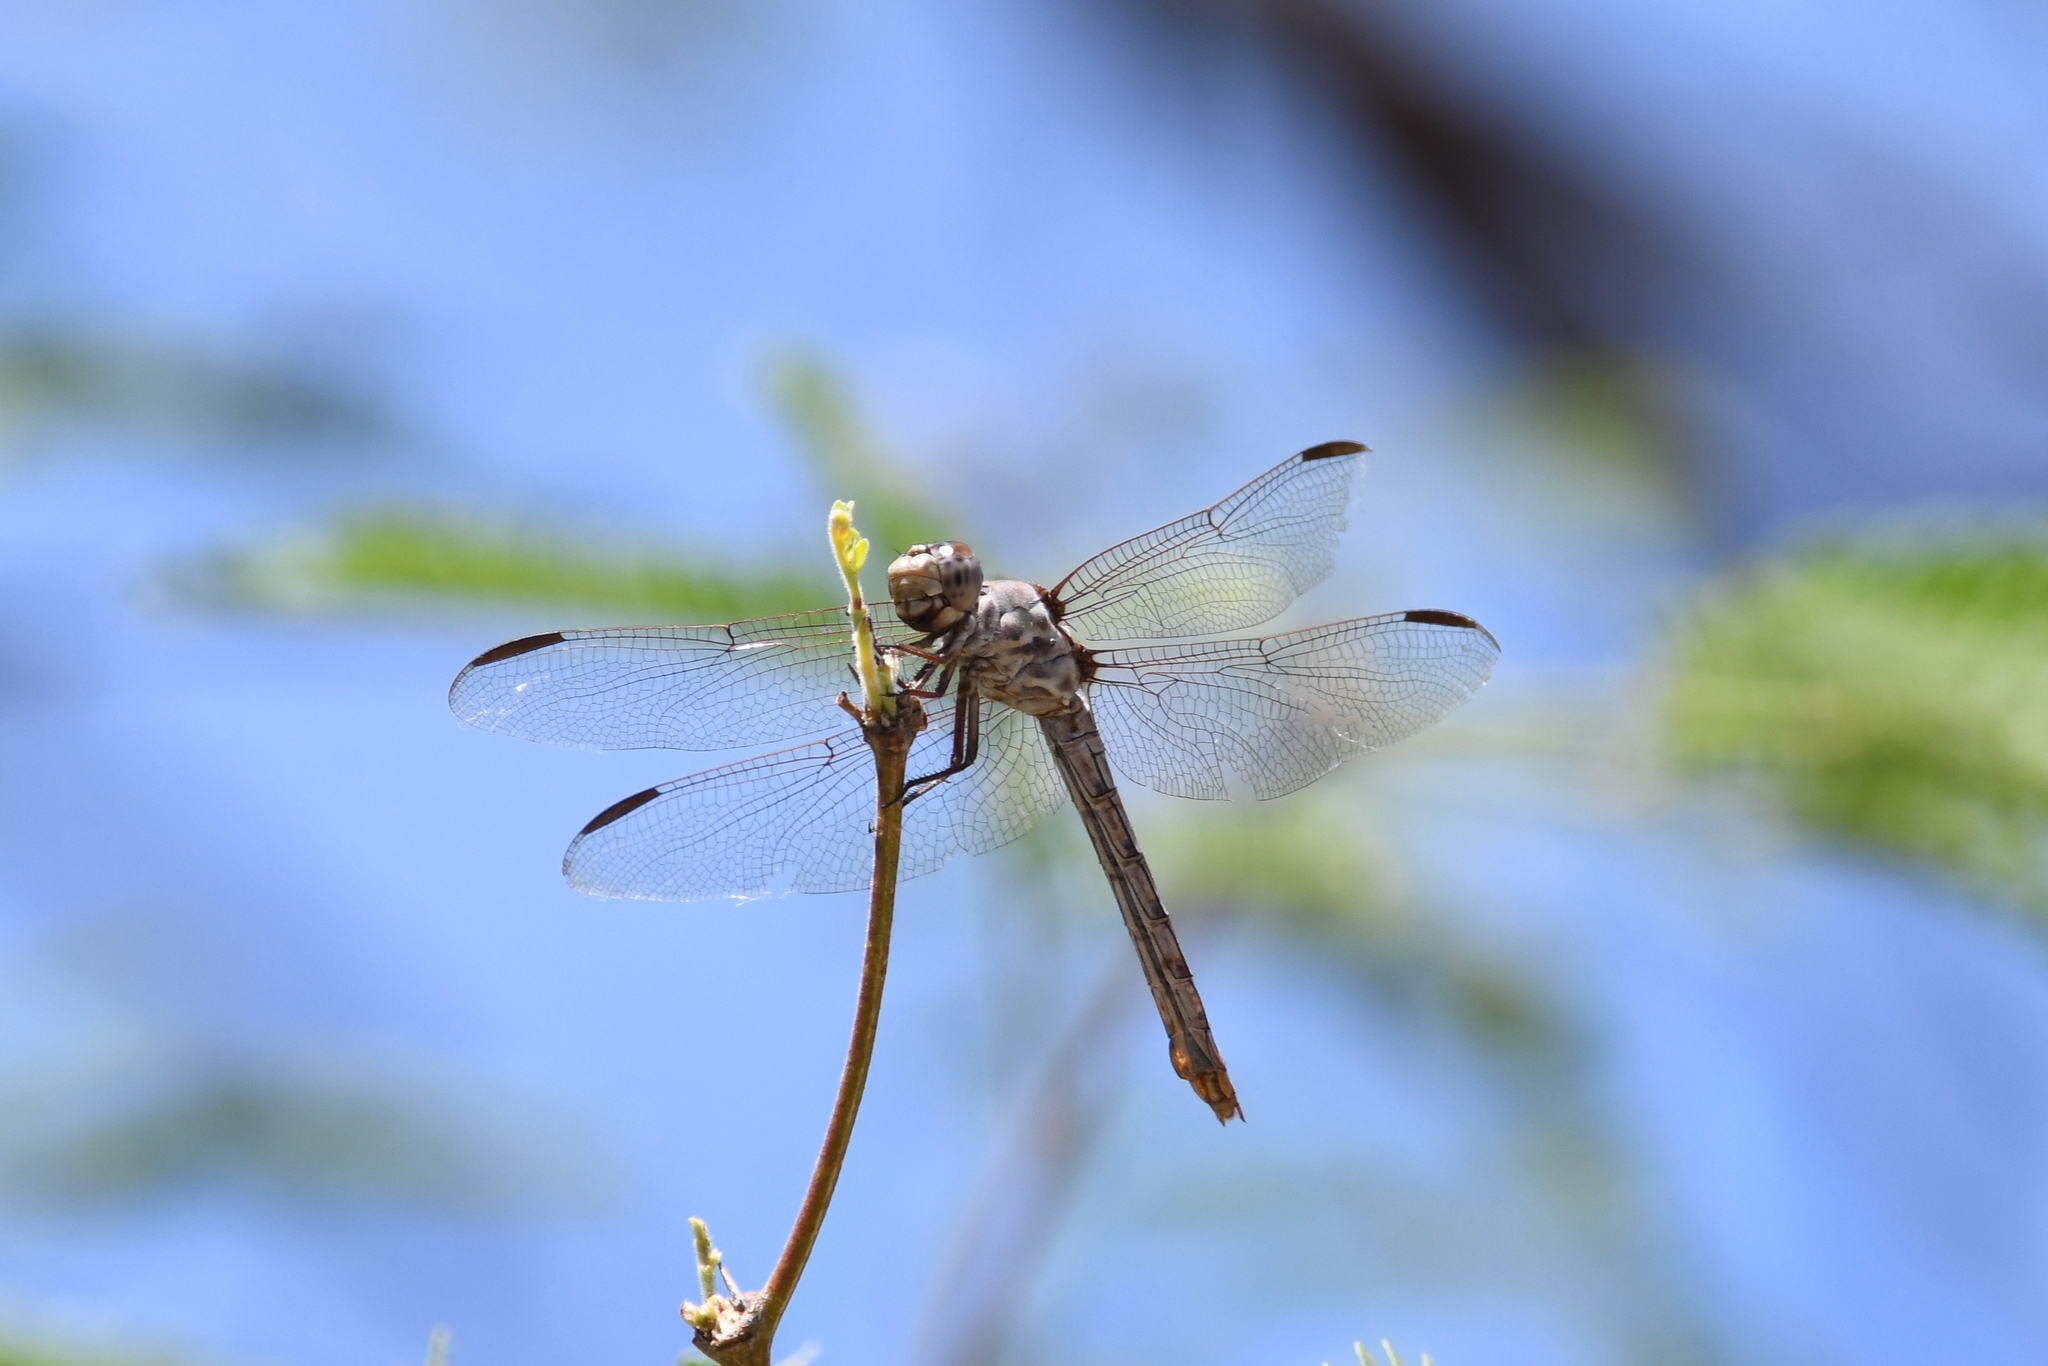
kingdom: Animalia
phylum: Arthropoda
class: Insecta
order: Odonata
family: Libellulidae
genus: Orthemis
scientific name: Orthemis ferruginea
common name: Roseate skimmer
